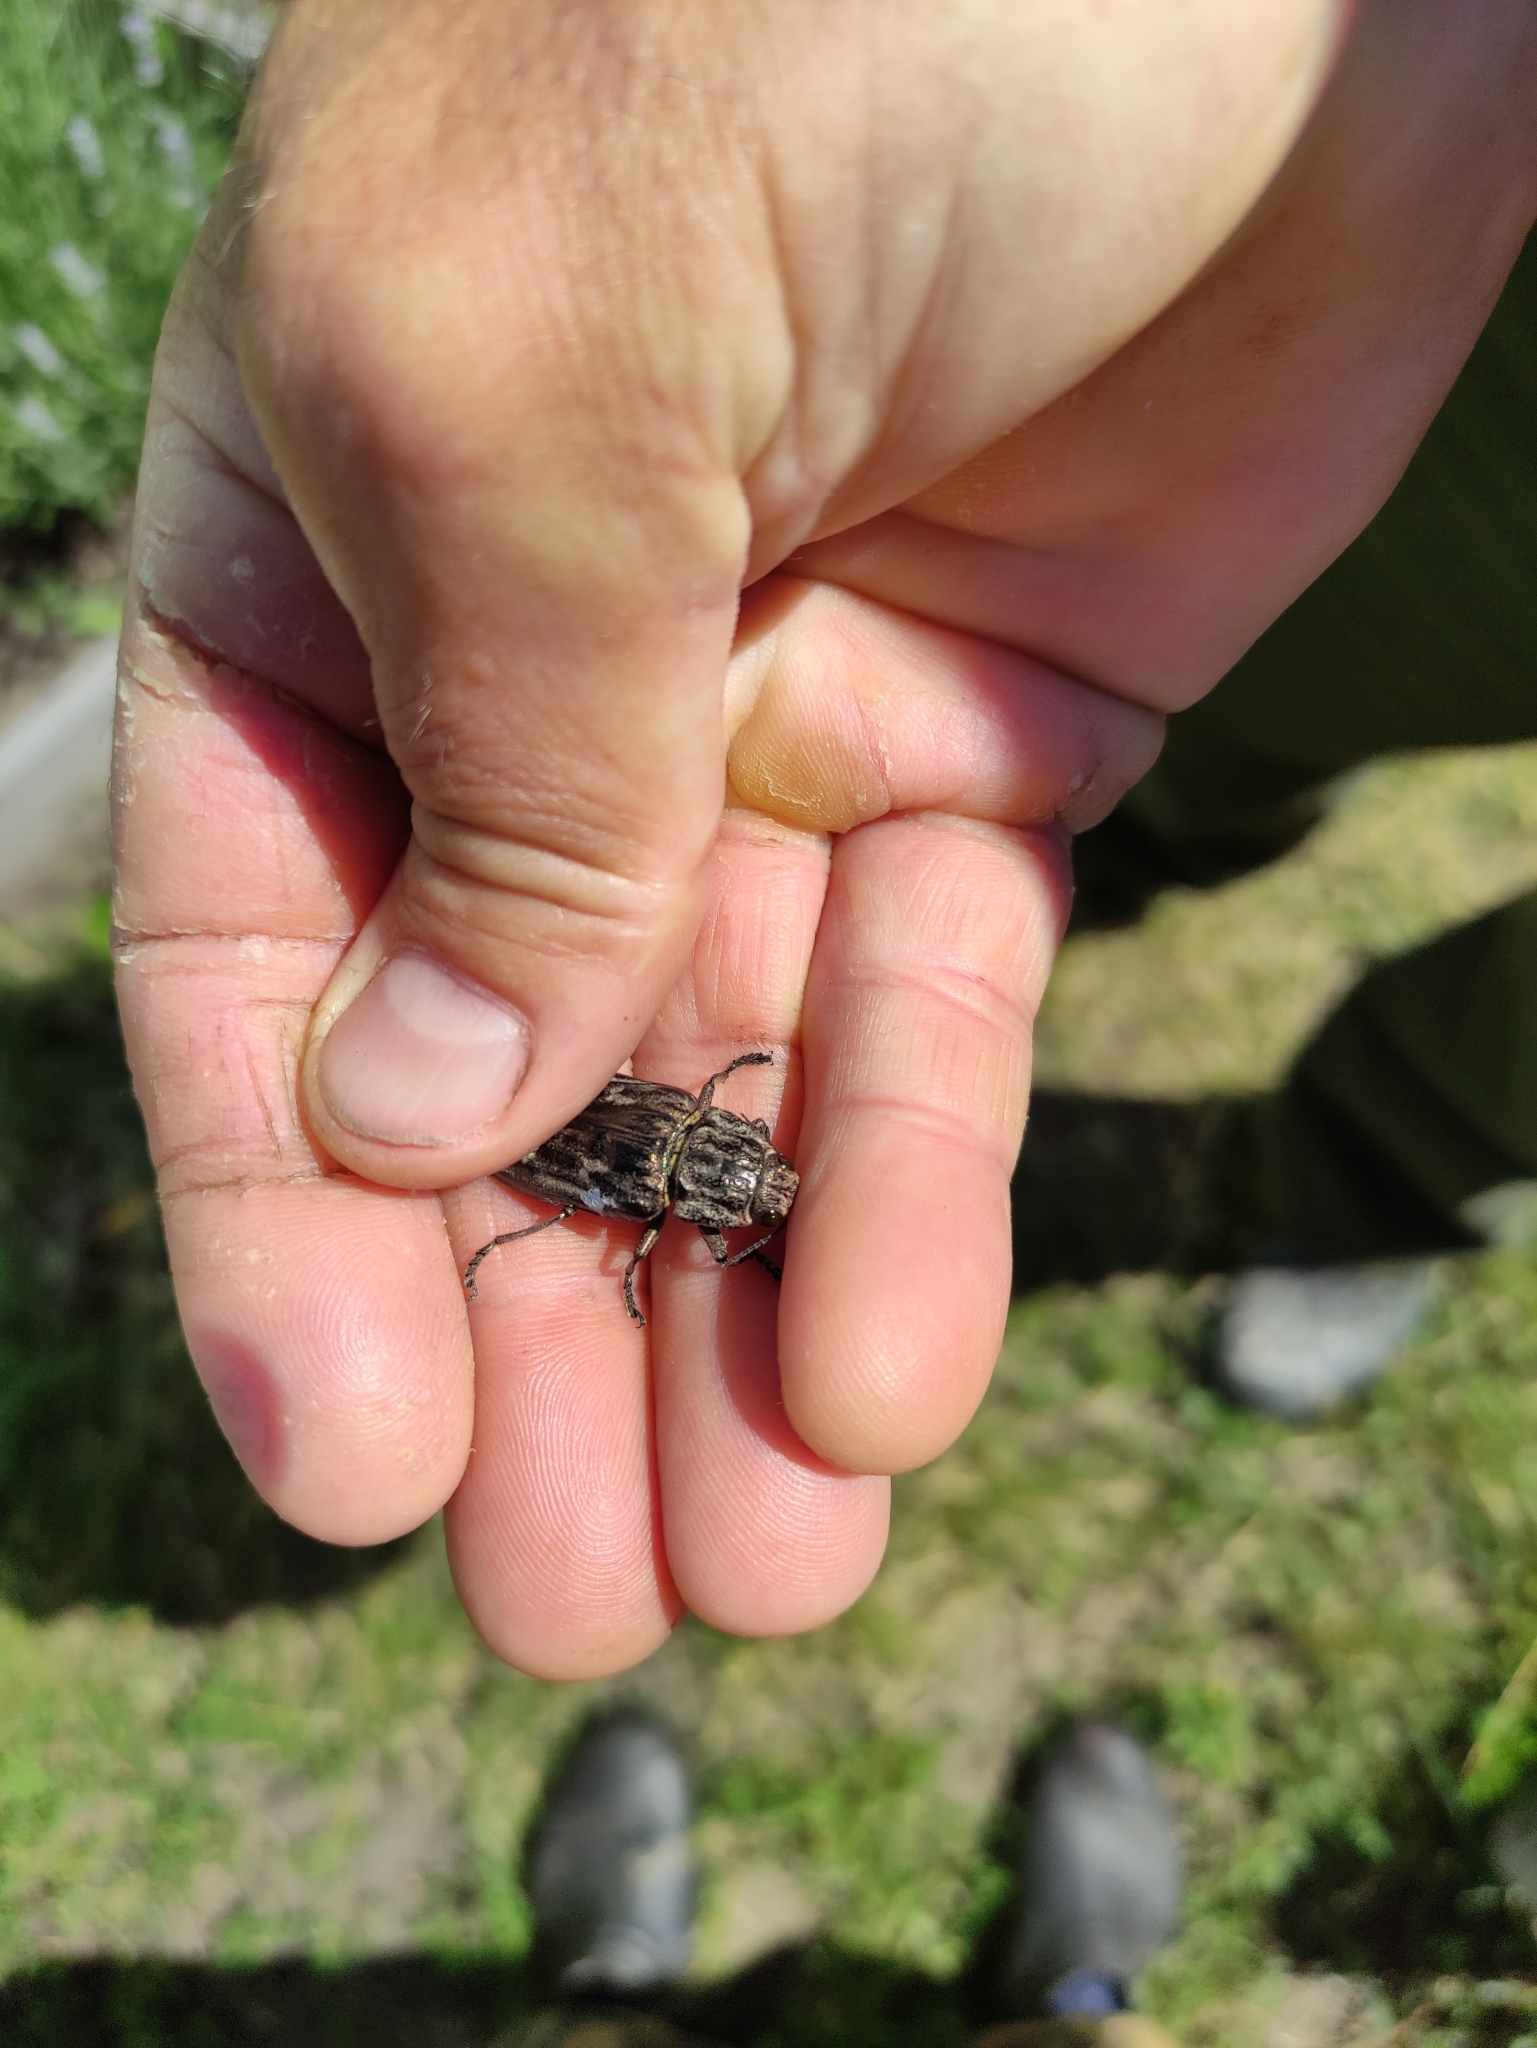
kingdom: Animalia
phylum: Arthropoda
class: Insecta
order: Coleoptera
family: Buprestidae
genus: Chalcophora
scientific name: Chalcophora mariana
